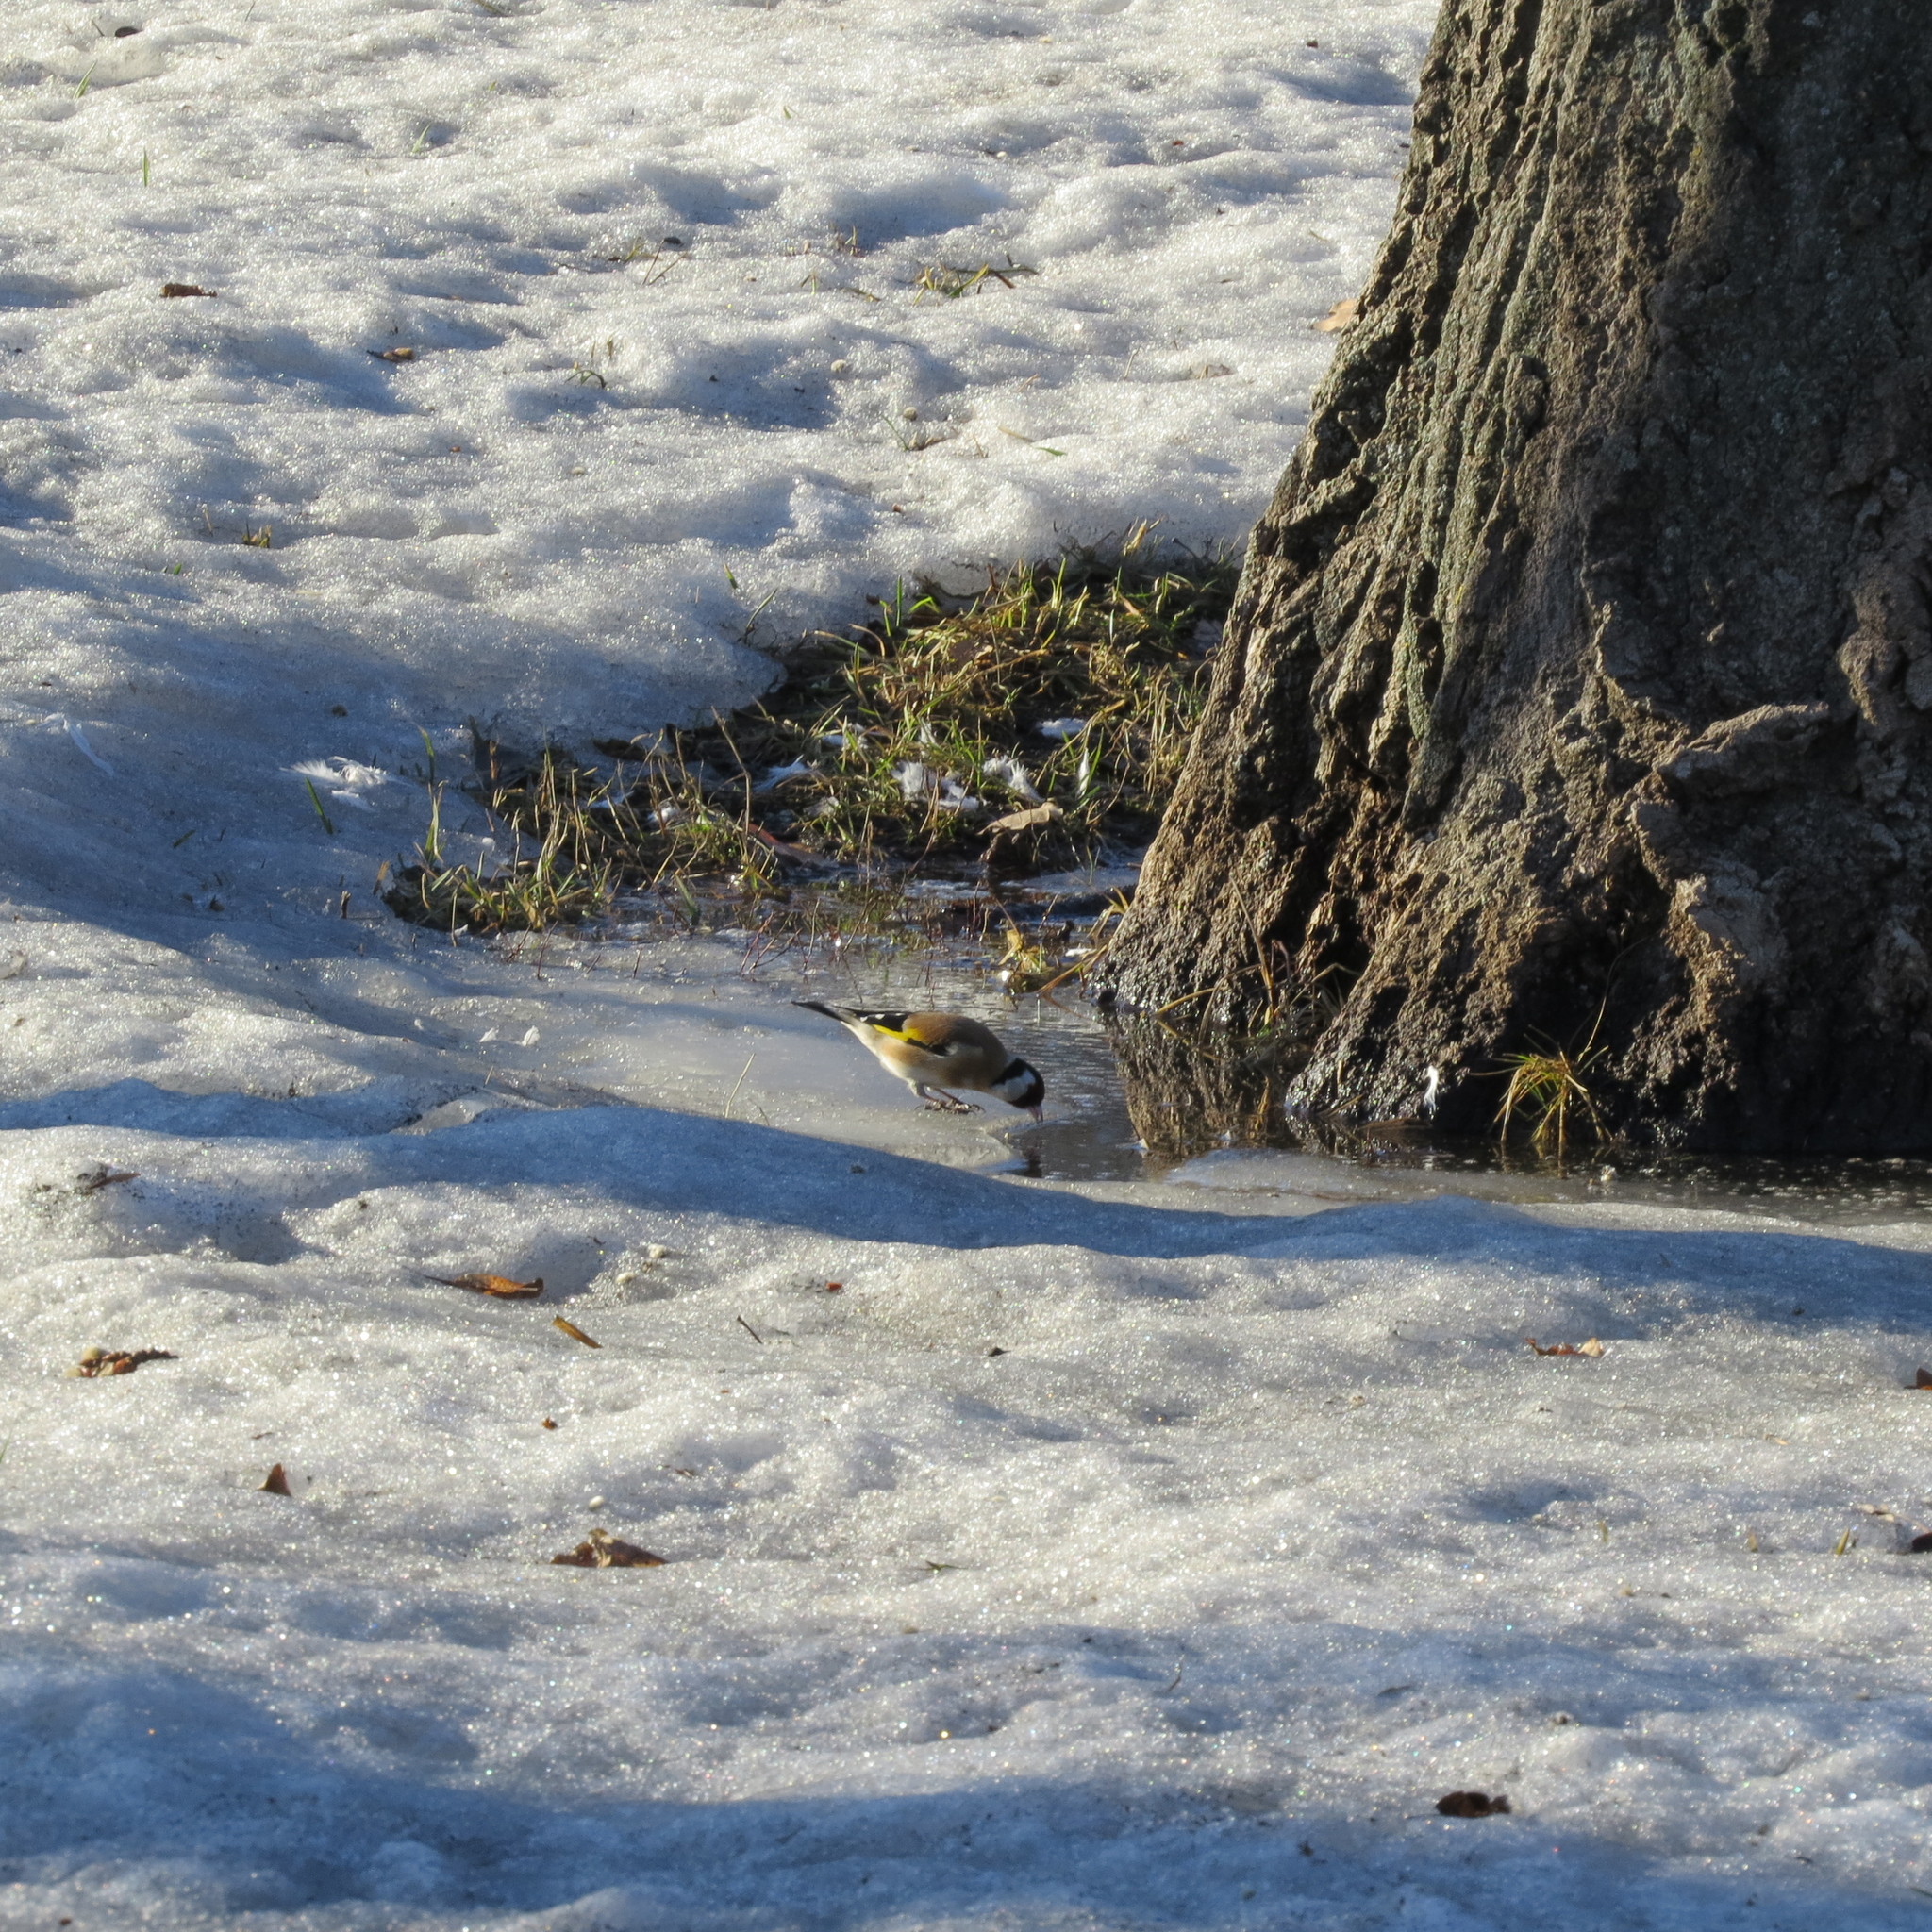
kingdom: Animalia
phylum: Chordata
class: Aves
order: Passeriformes
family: Fringillidae
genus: Carduelis
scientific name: Carduelis carduelis
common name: European goldfinch
